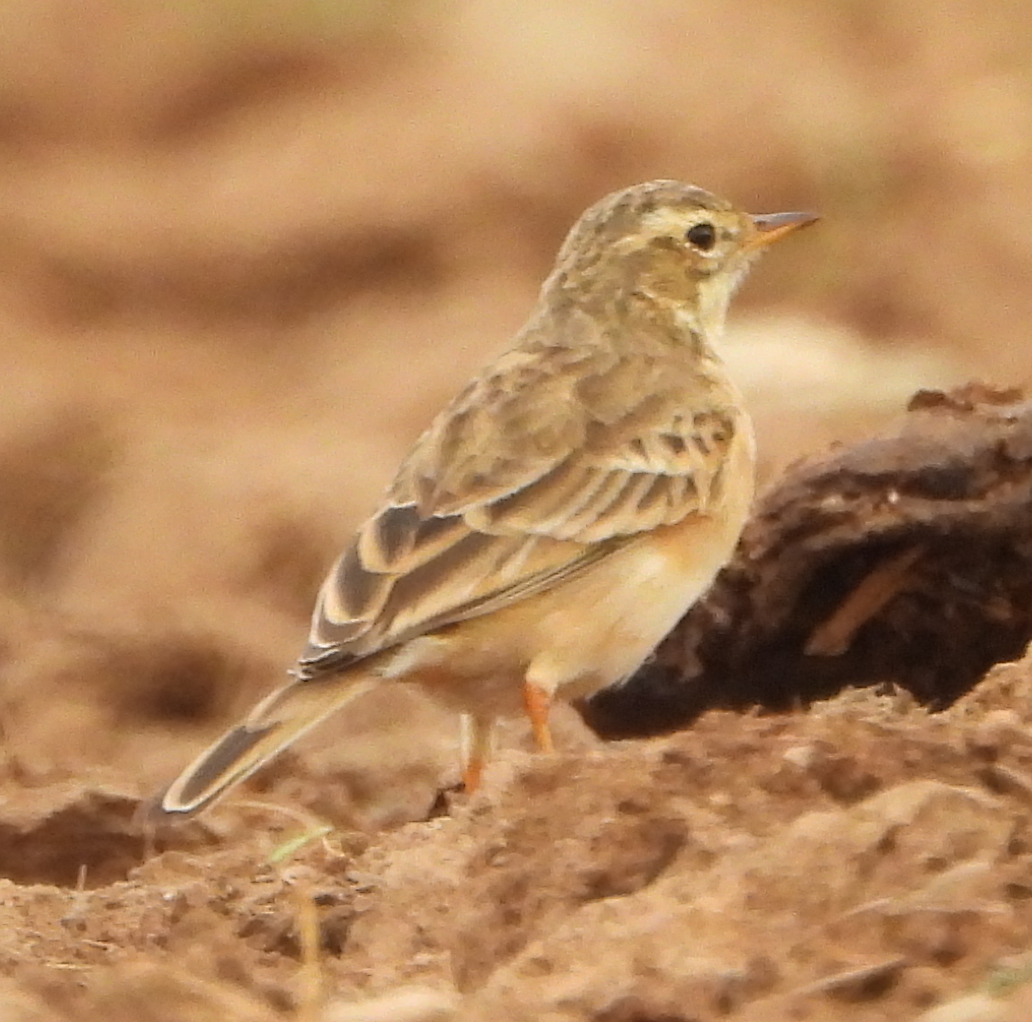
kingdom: Animalia
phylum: Chordata
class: Aves
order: Passeriformes
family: Motacillidae
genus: Anthus
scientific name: Anthus cinnamomeus
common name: African pipit
